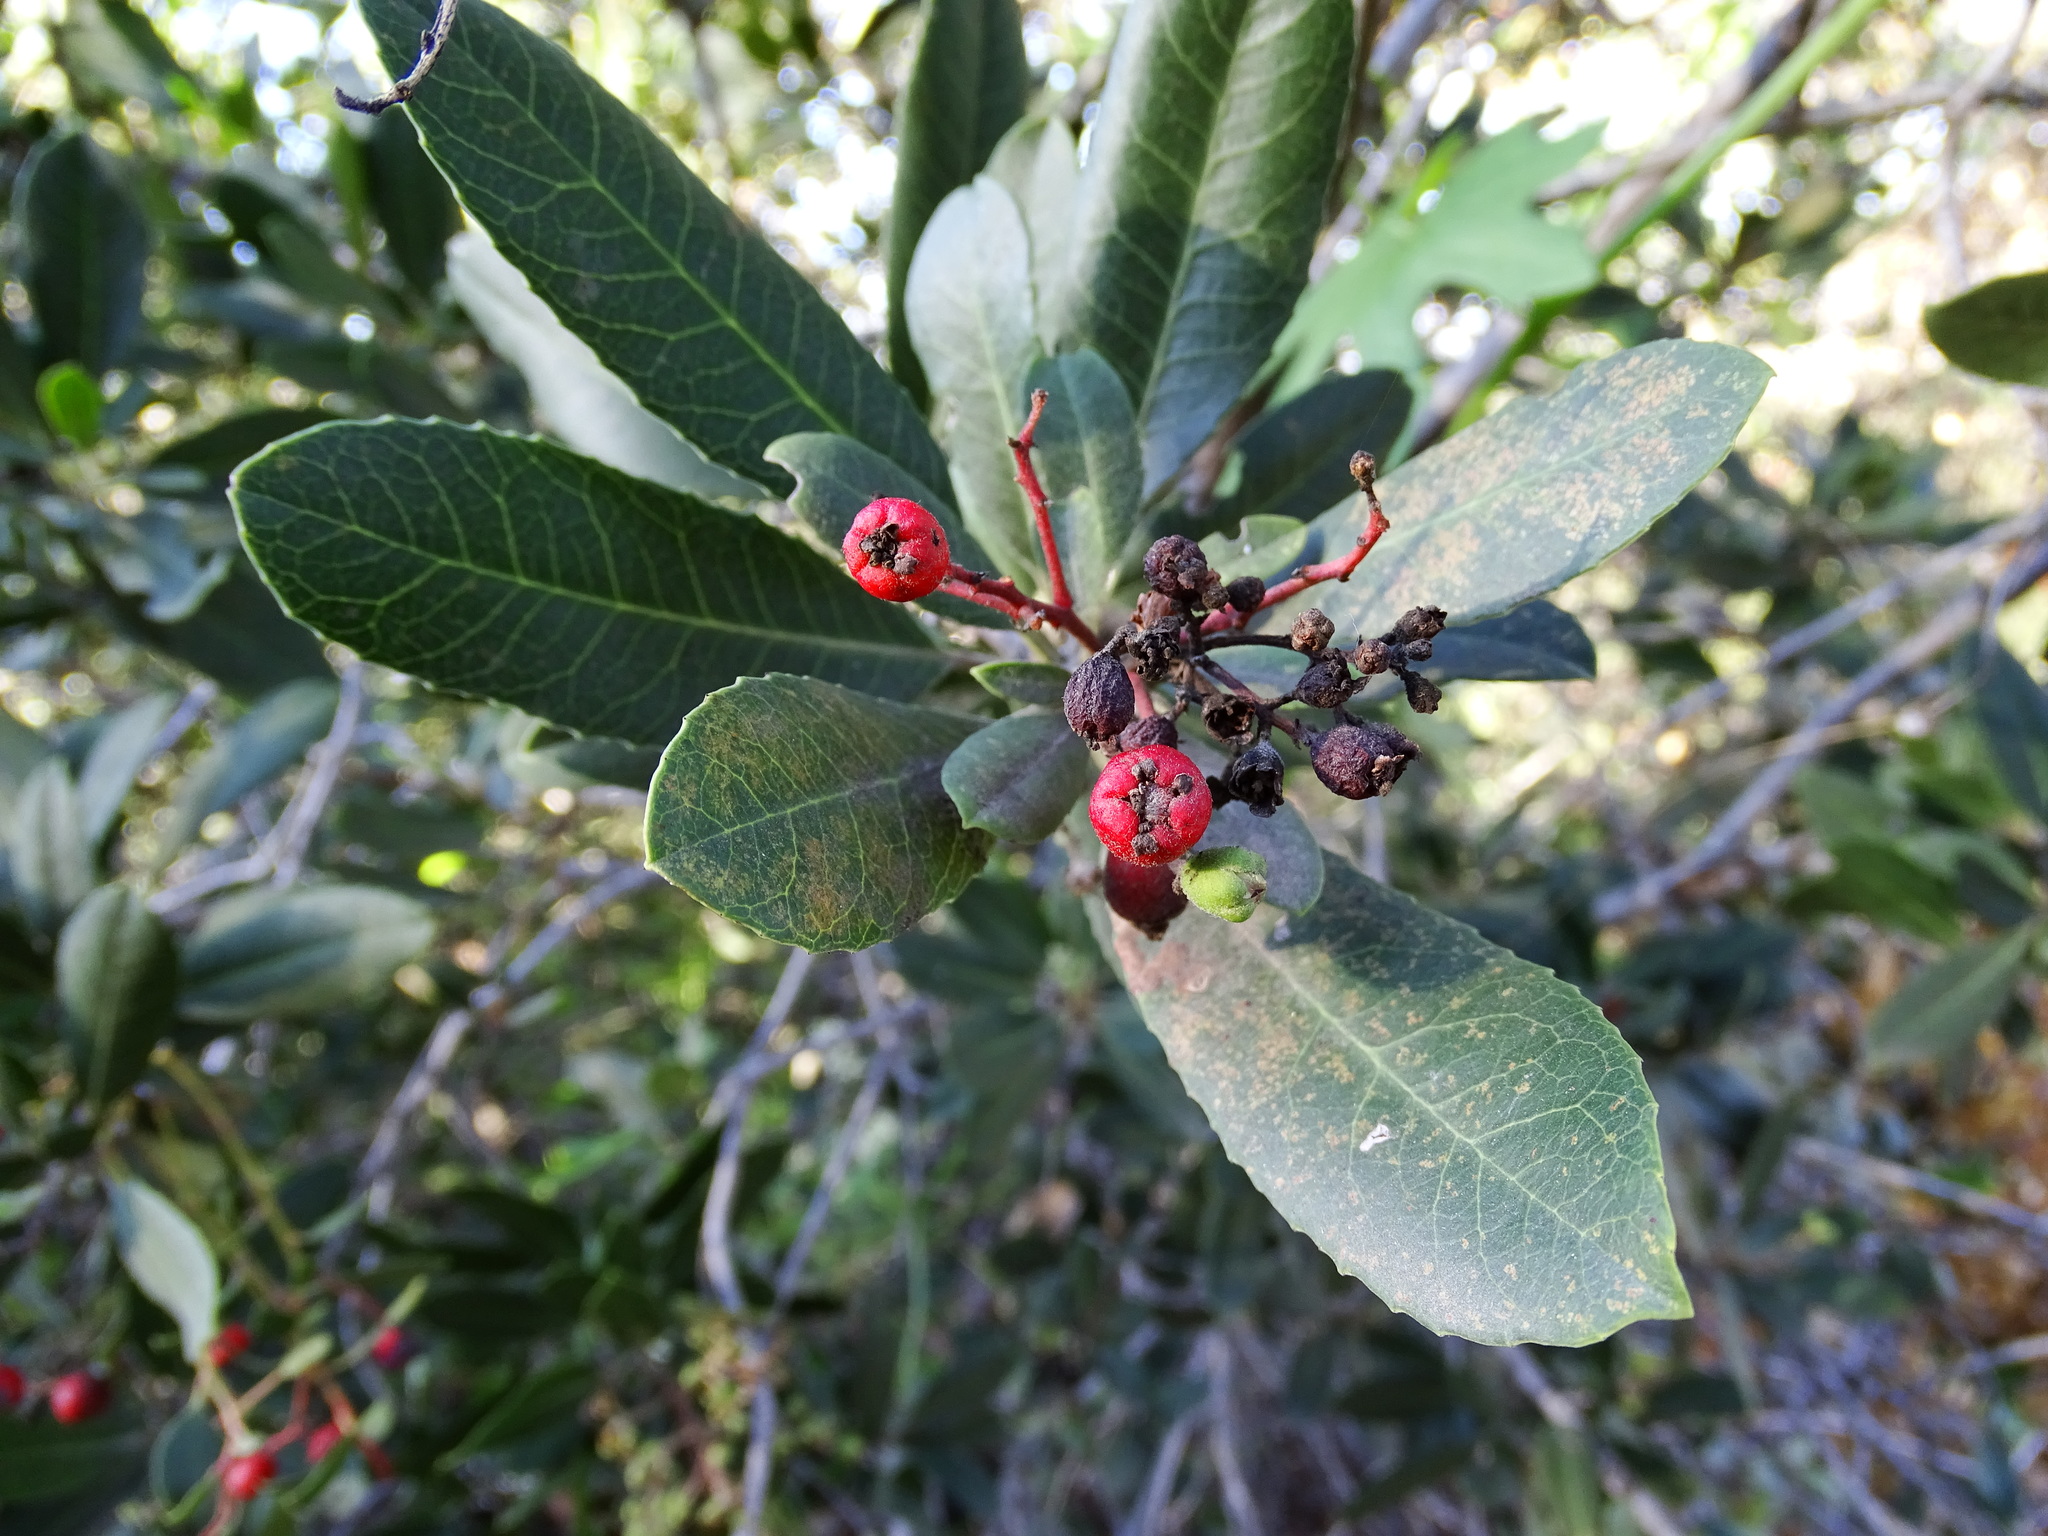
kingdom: Plantae
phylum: Tracheophyta
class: Magnoliopsida
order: Rosales
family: Rosaceae
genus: Heteromeles
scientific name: Heteromeles arbutifolia
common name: California-holly
